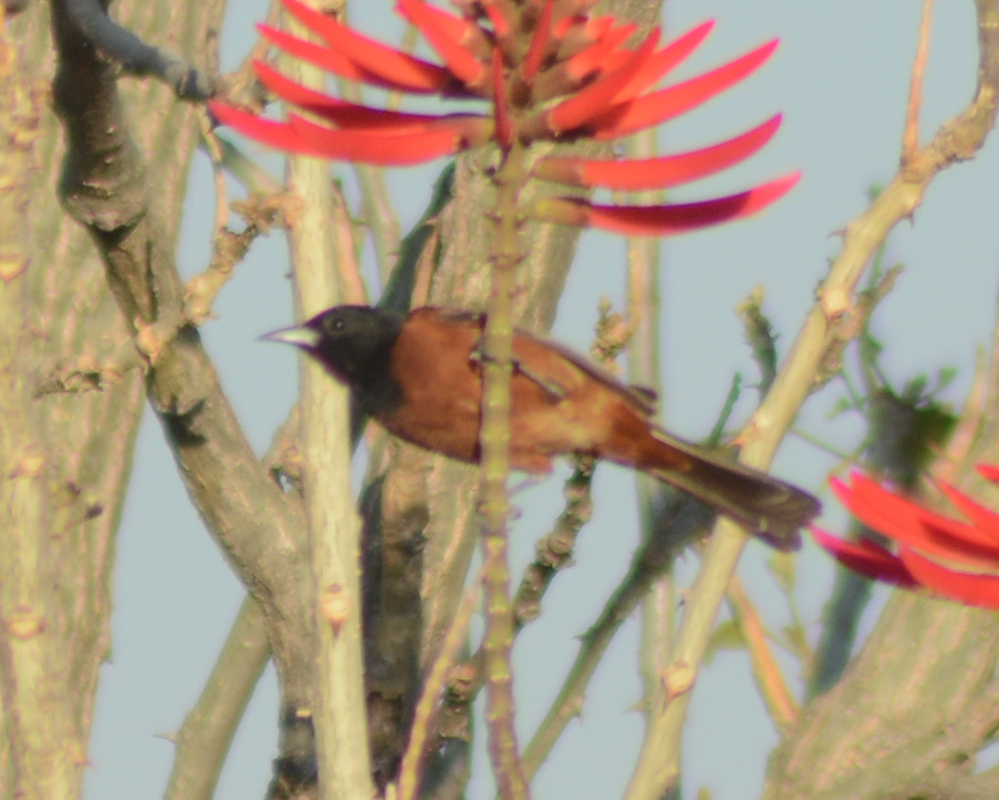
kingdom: Animalia
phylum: Chordata
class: Aves
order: Passeriformes
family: Icteridae
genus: Icterus
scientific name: Icterus spurius
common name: Orchard oriole
